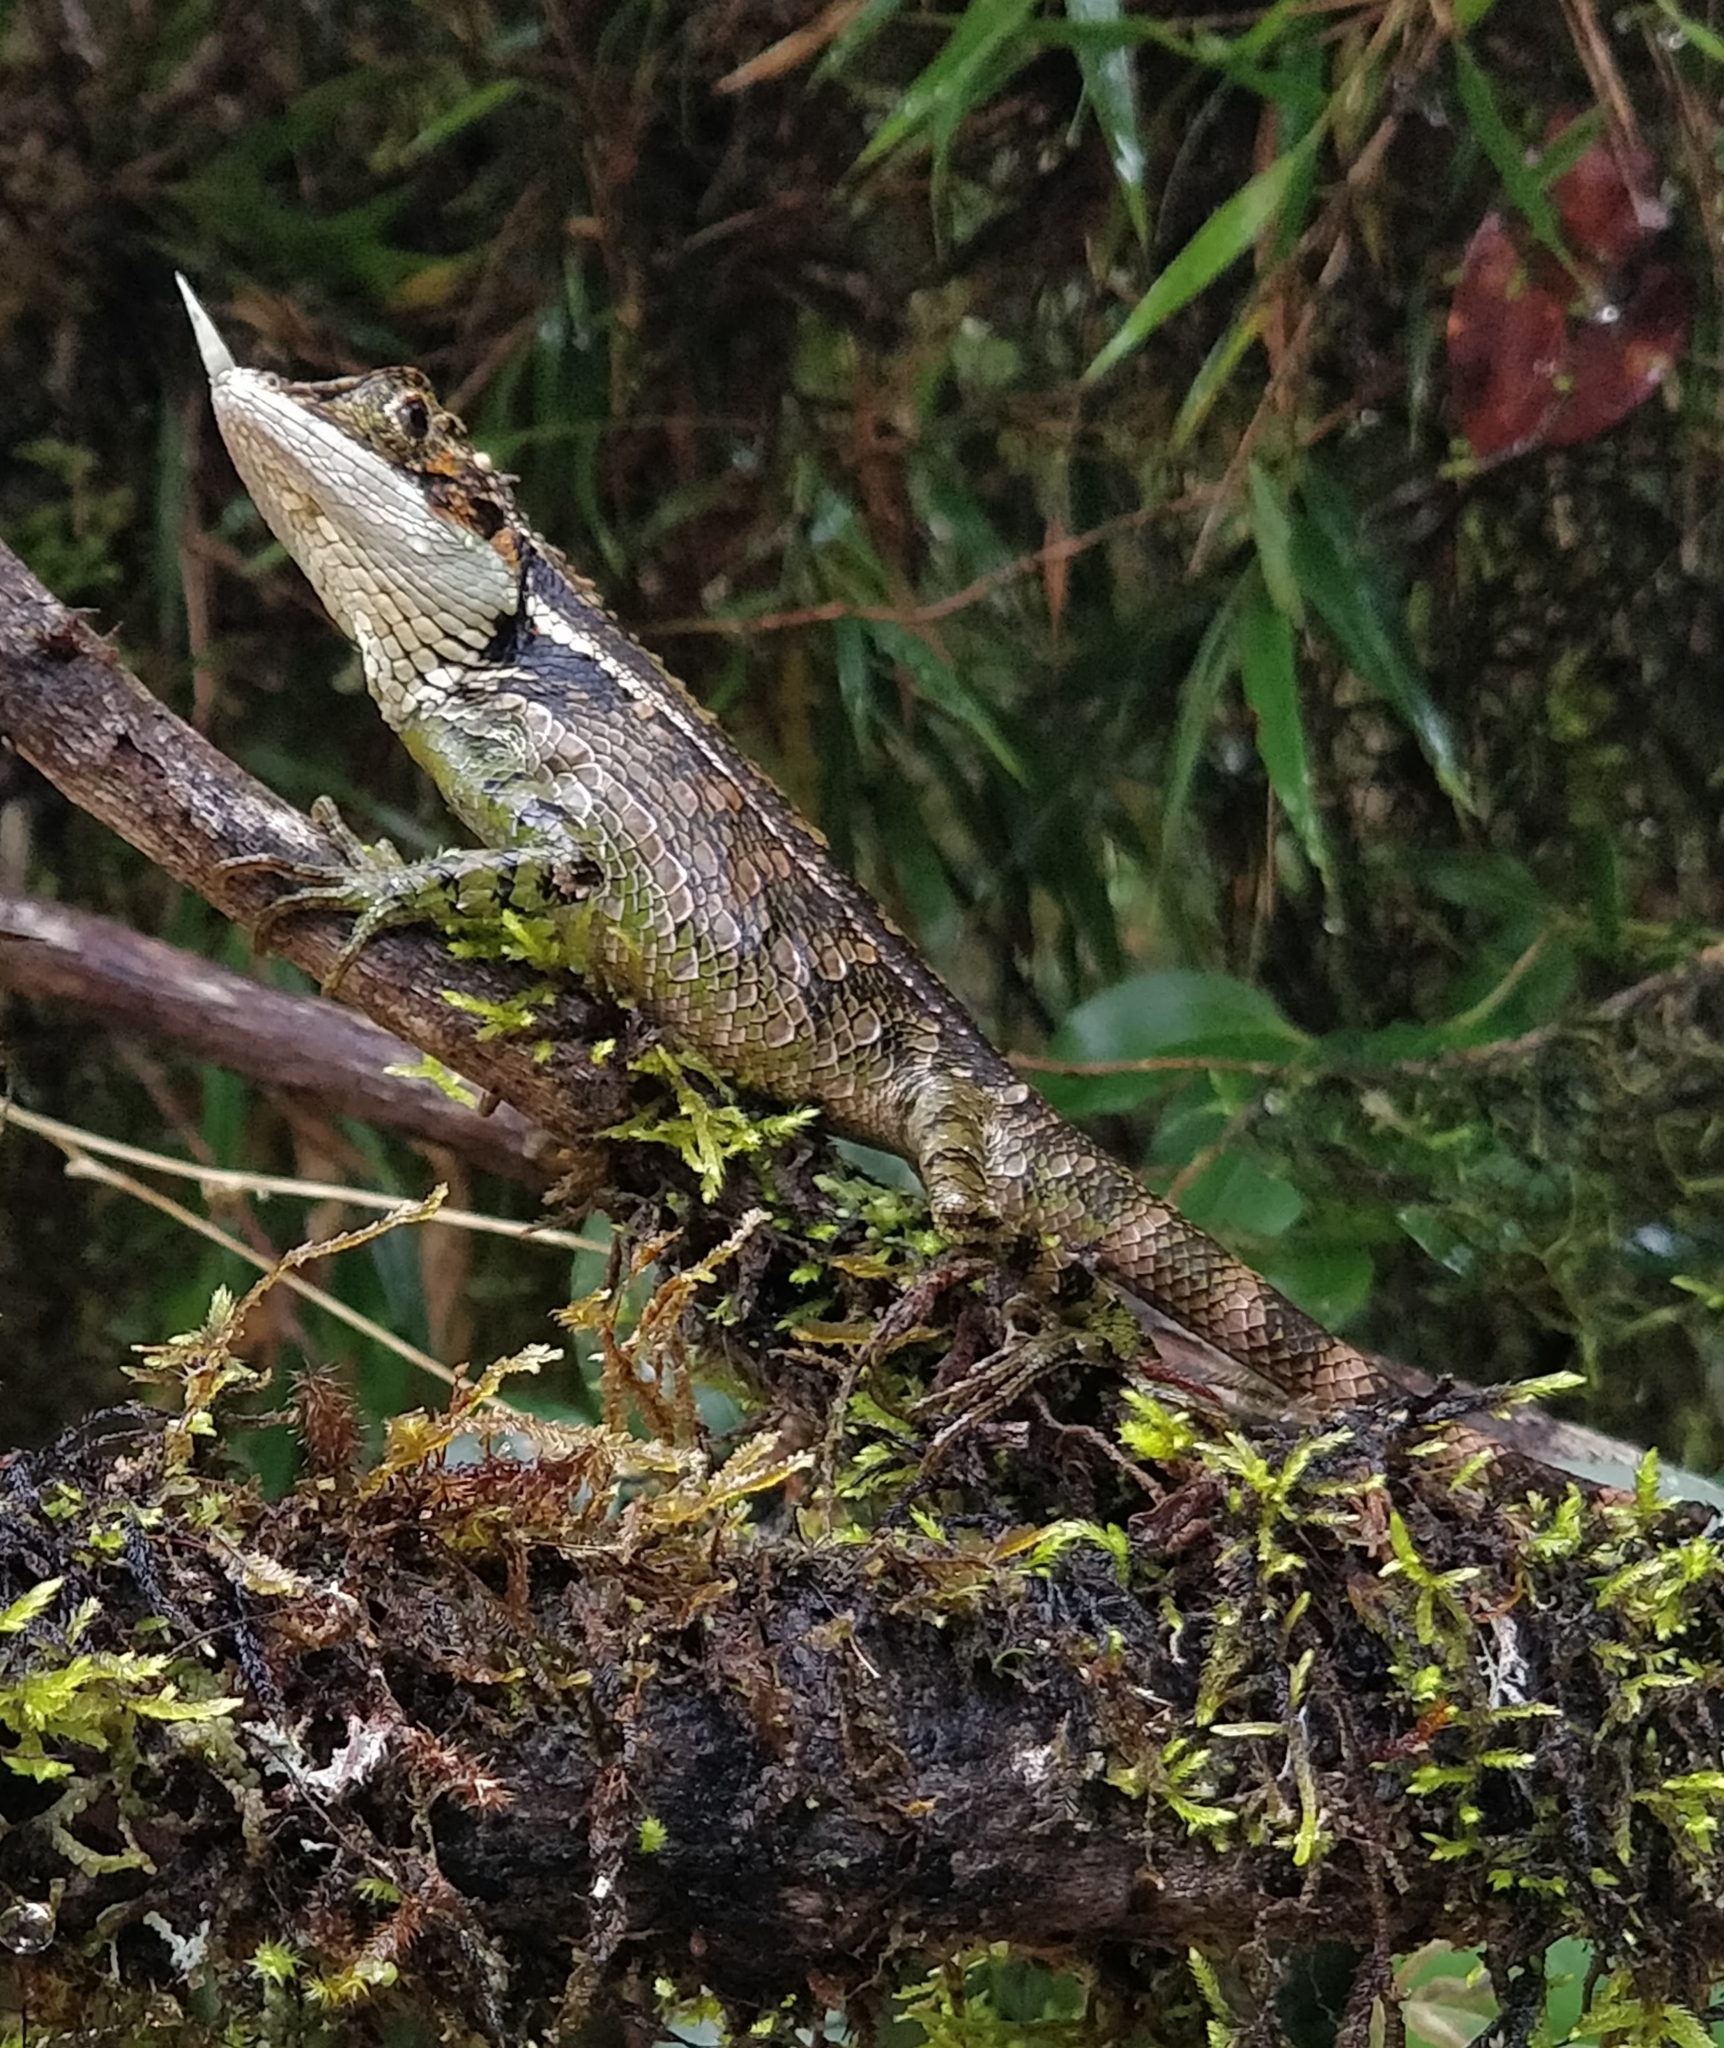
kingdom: Animalia
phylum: Chordata
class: Squamata
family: Agamidae
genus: Ceratophora
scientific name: Ceratophora stoddartii
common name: Mountain horned agama
